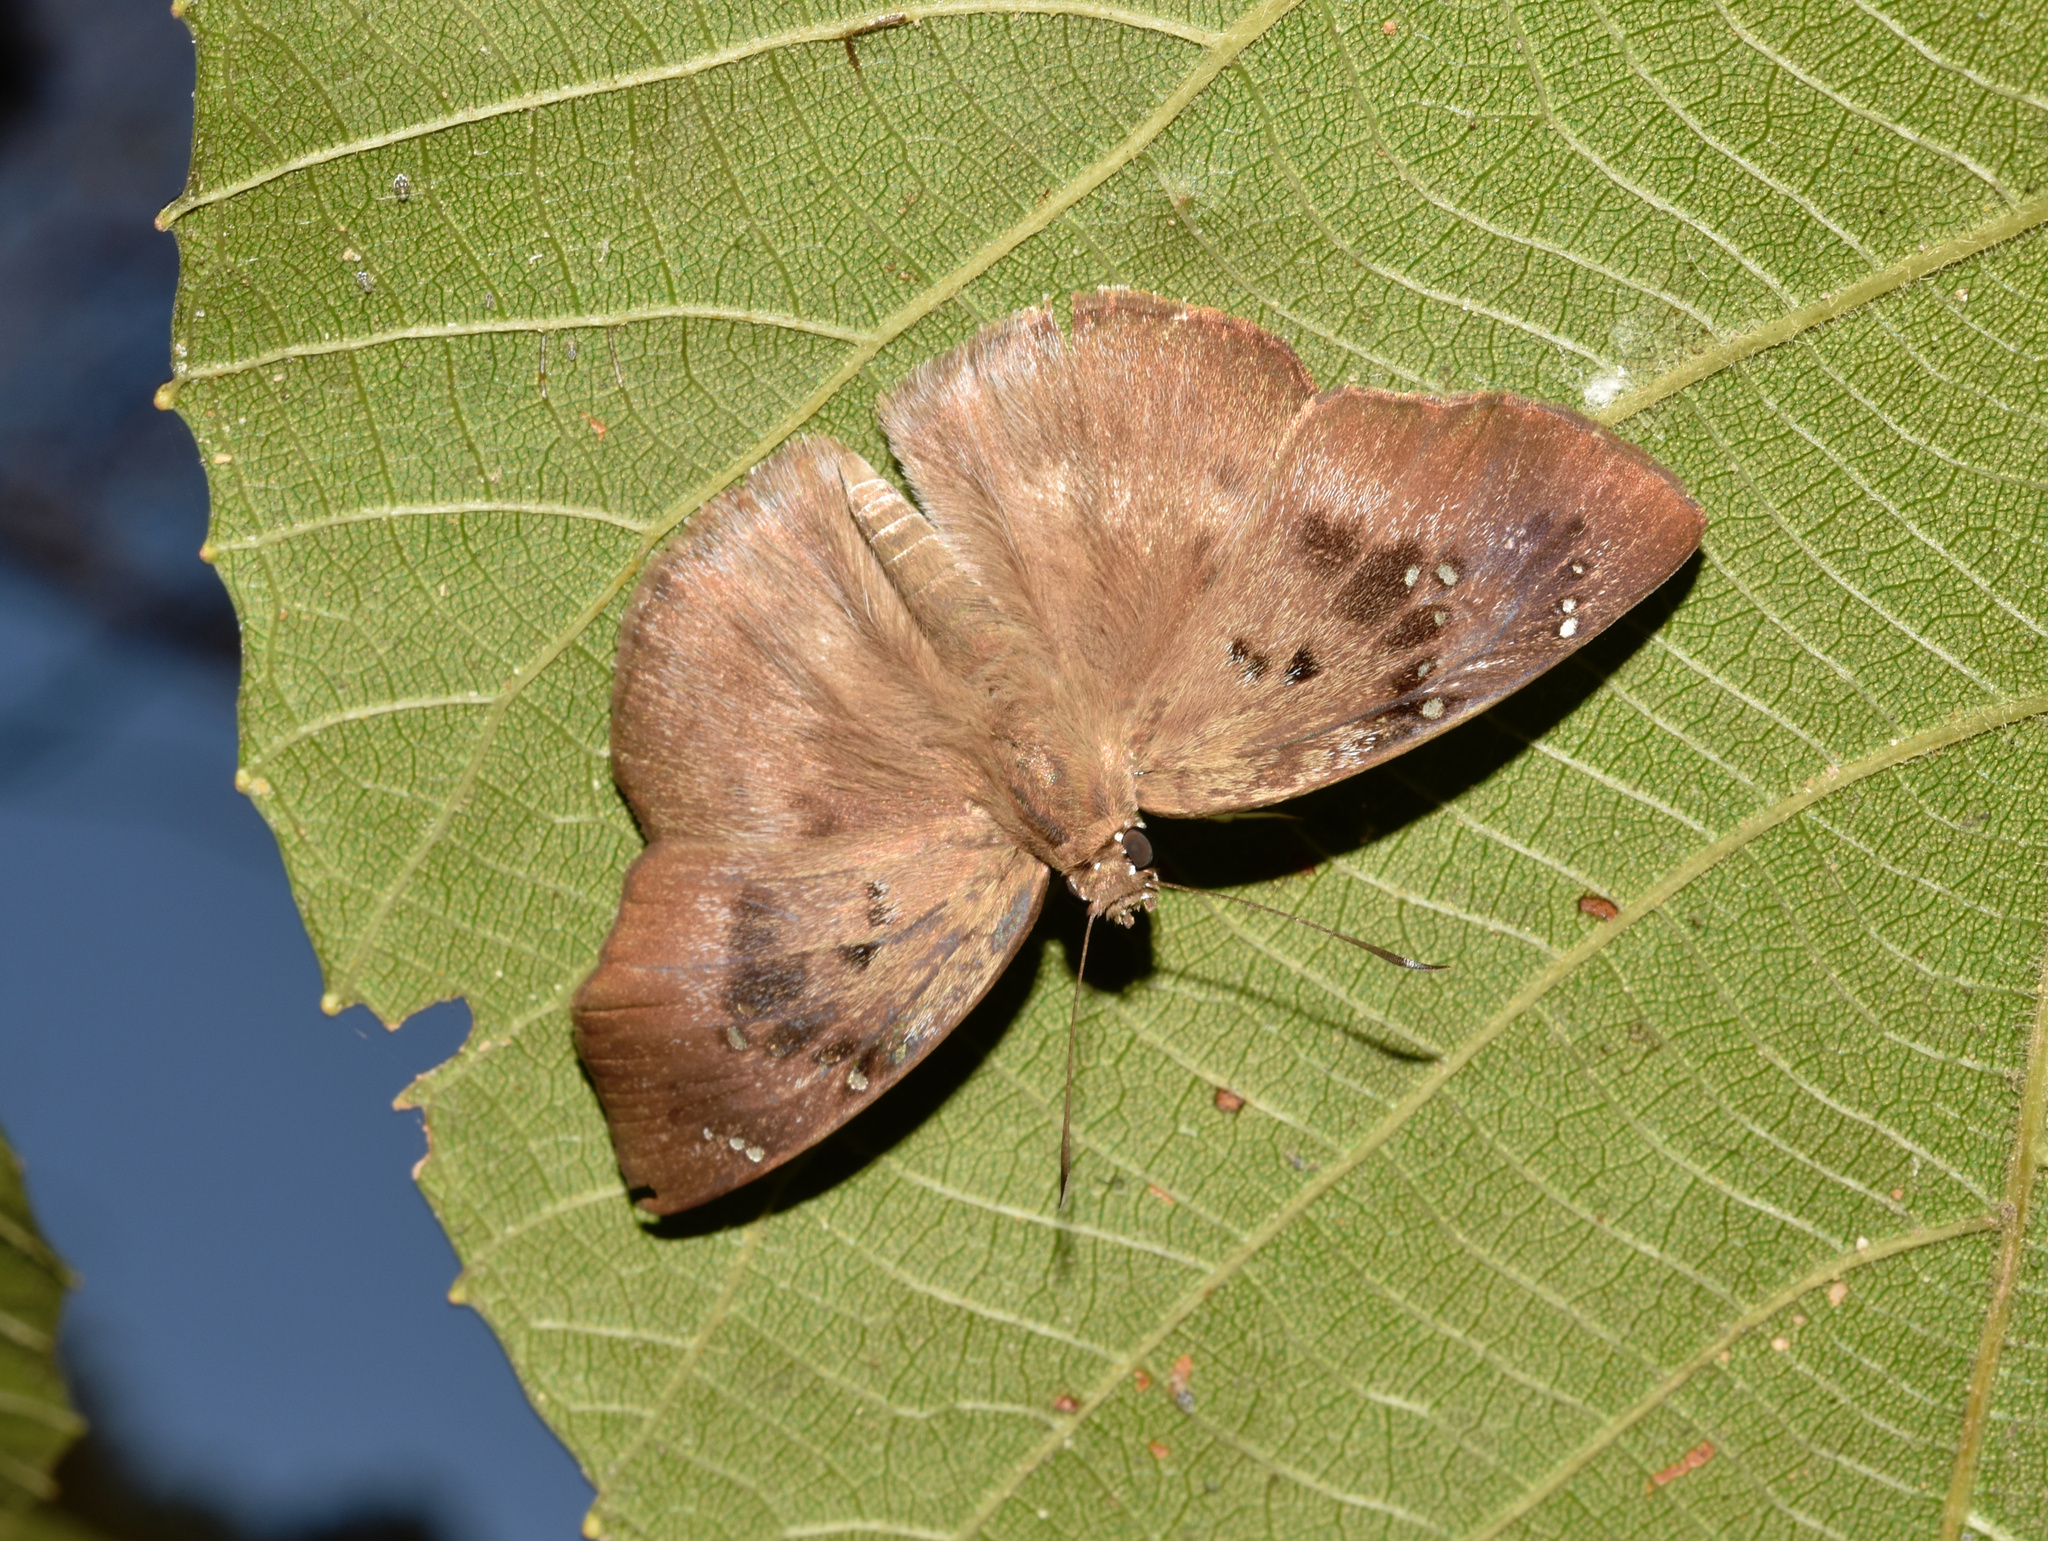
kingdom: Animalia
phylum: Arthropoda
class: Insecta
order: Lepidoptera
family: Hesperiidae
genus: Tagiades
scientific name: Tagiades flesus
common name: Clouded flat
